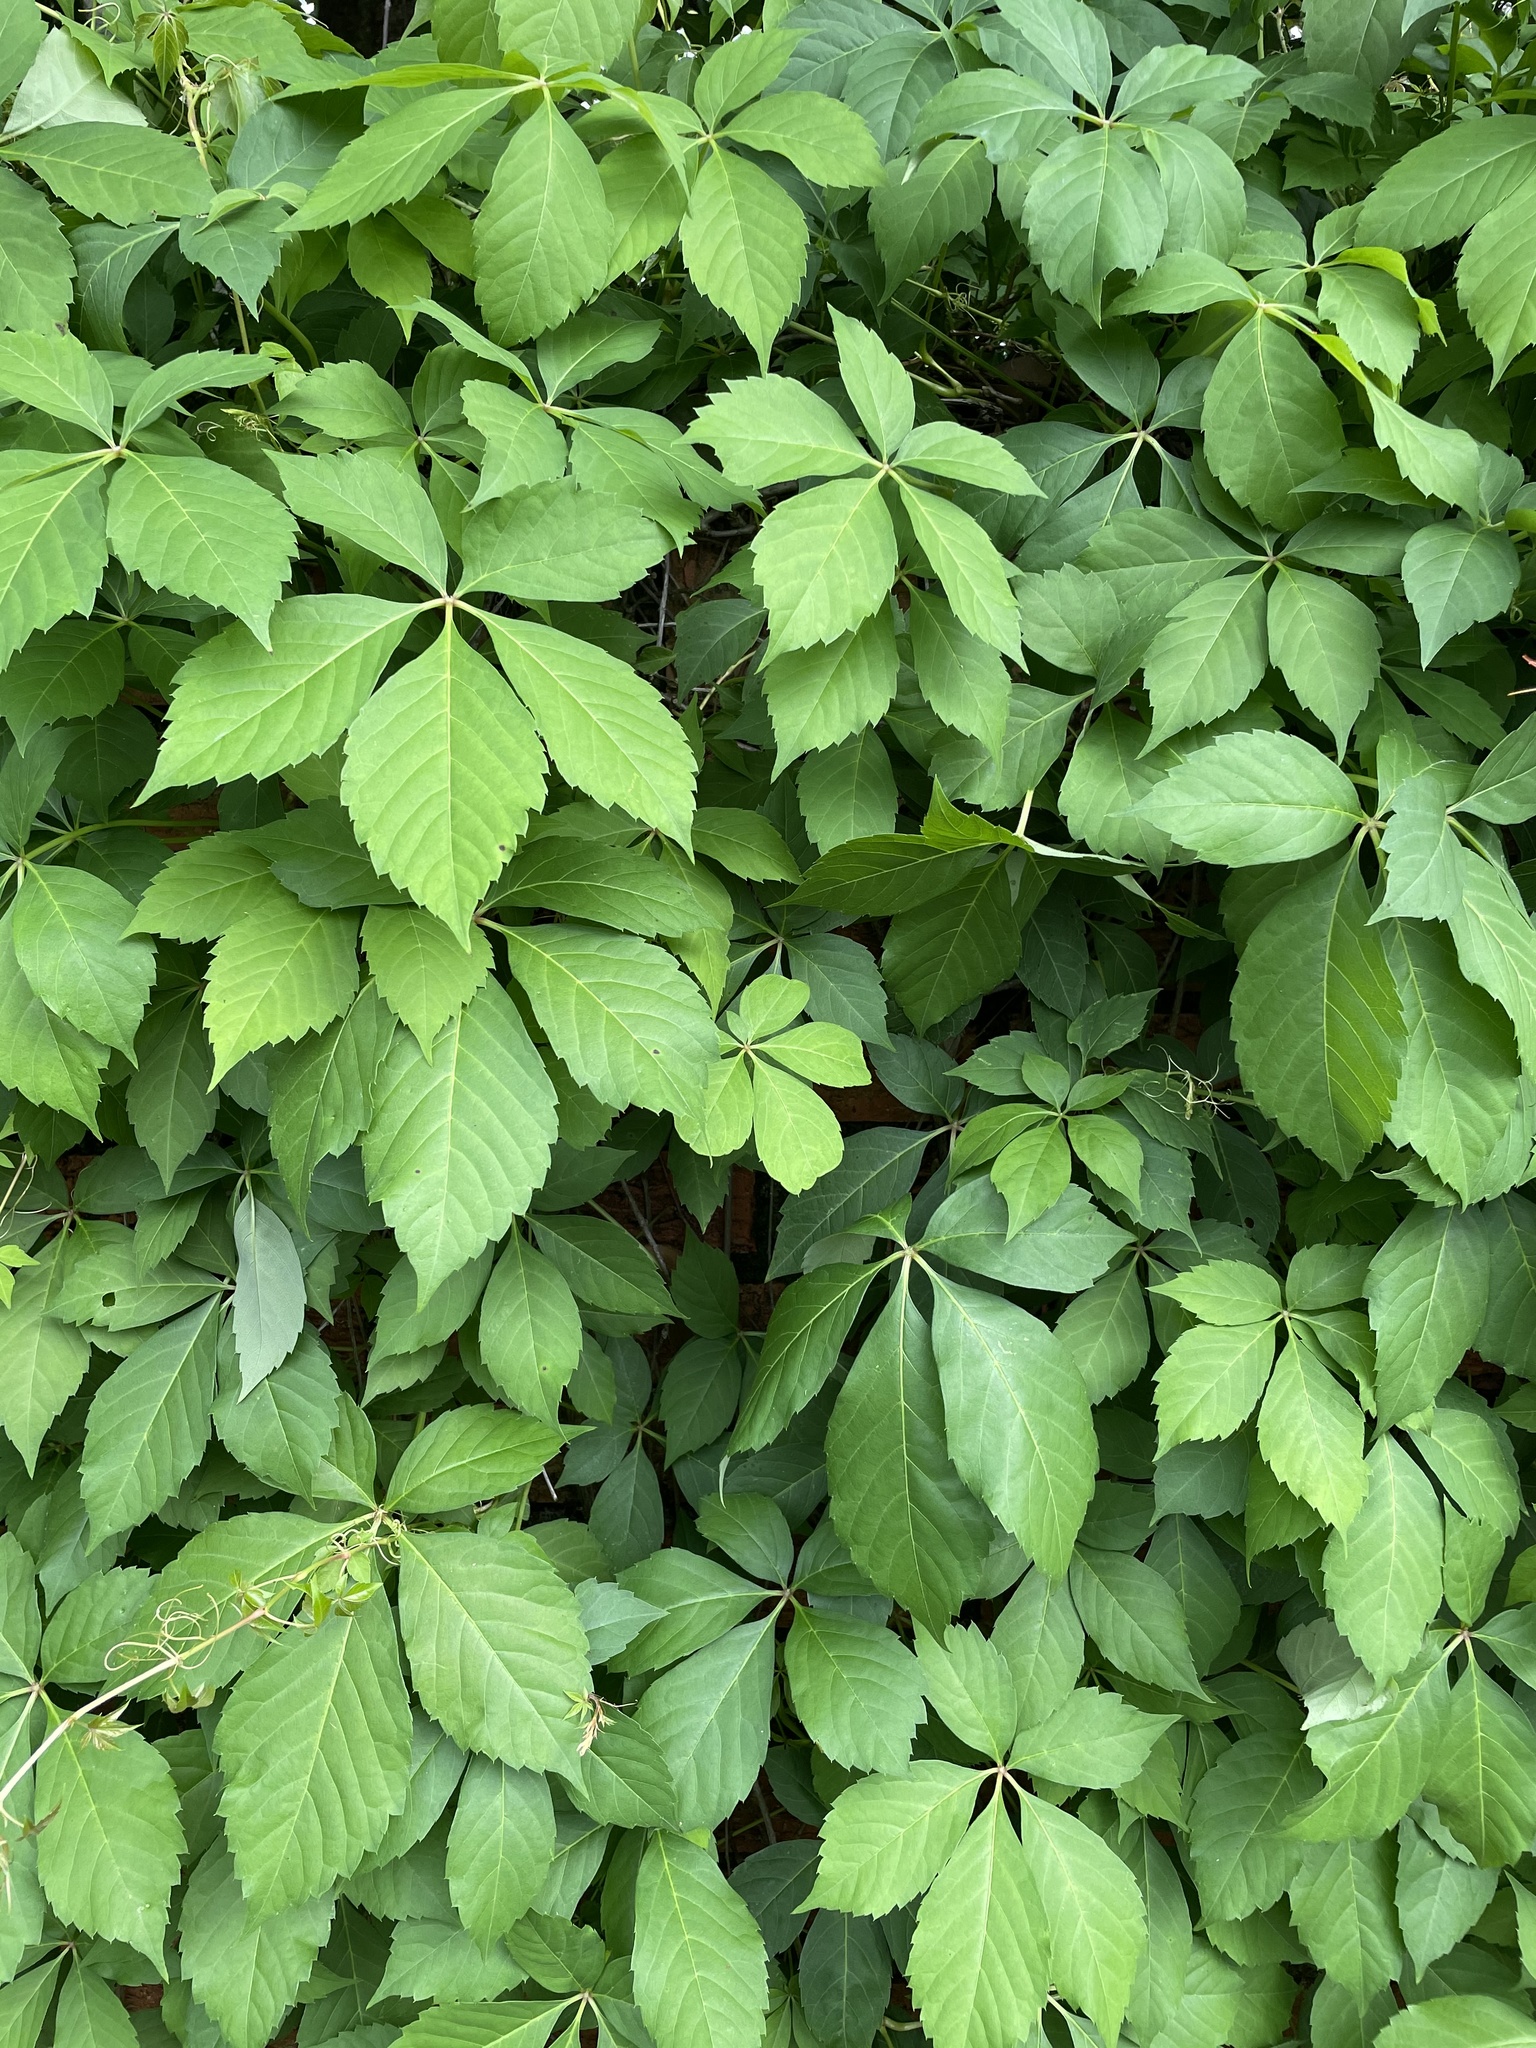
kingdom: Plantae
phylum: Tracheophyta
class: Magnoliopsida
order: Vitales
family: Vitaceae
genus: Parthenocissus
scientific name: Parthenocissus quinquefolia
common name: Virginia-creeper
